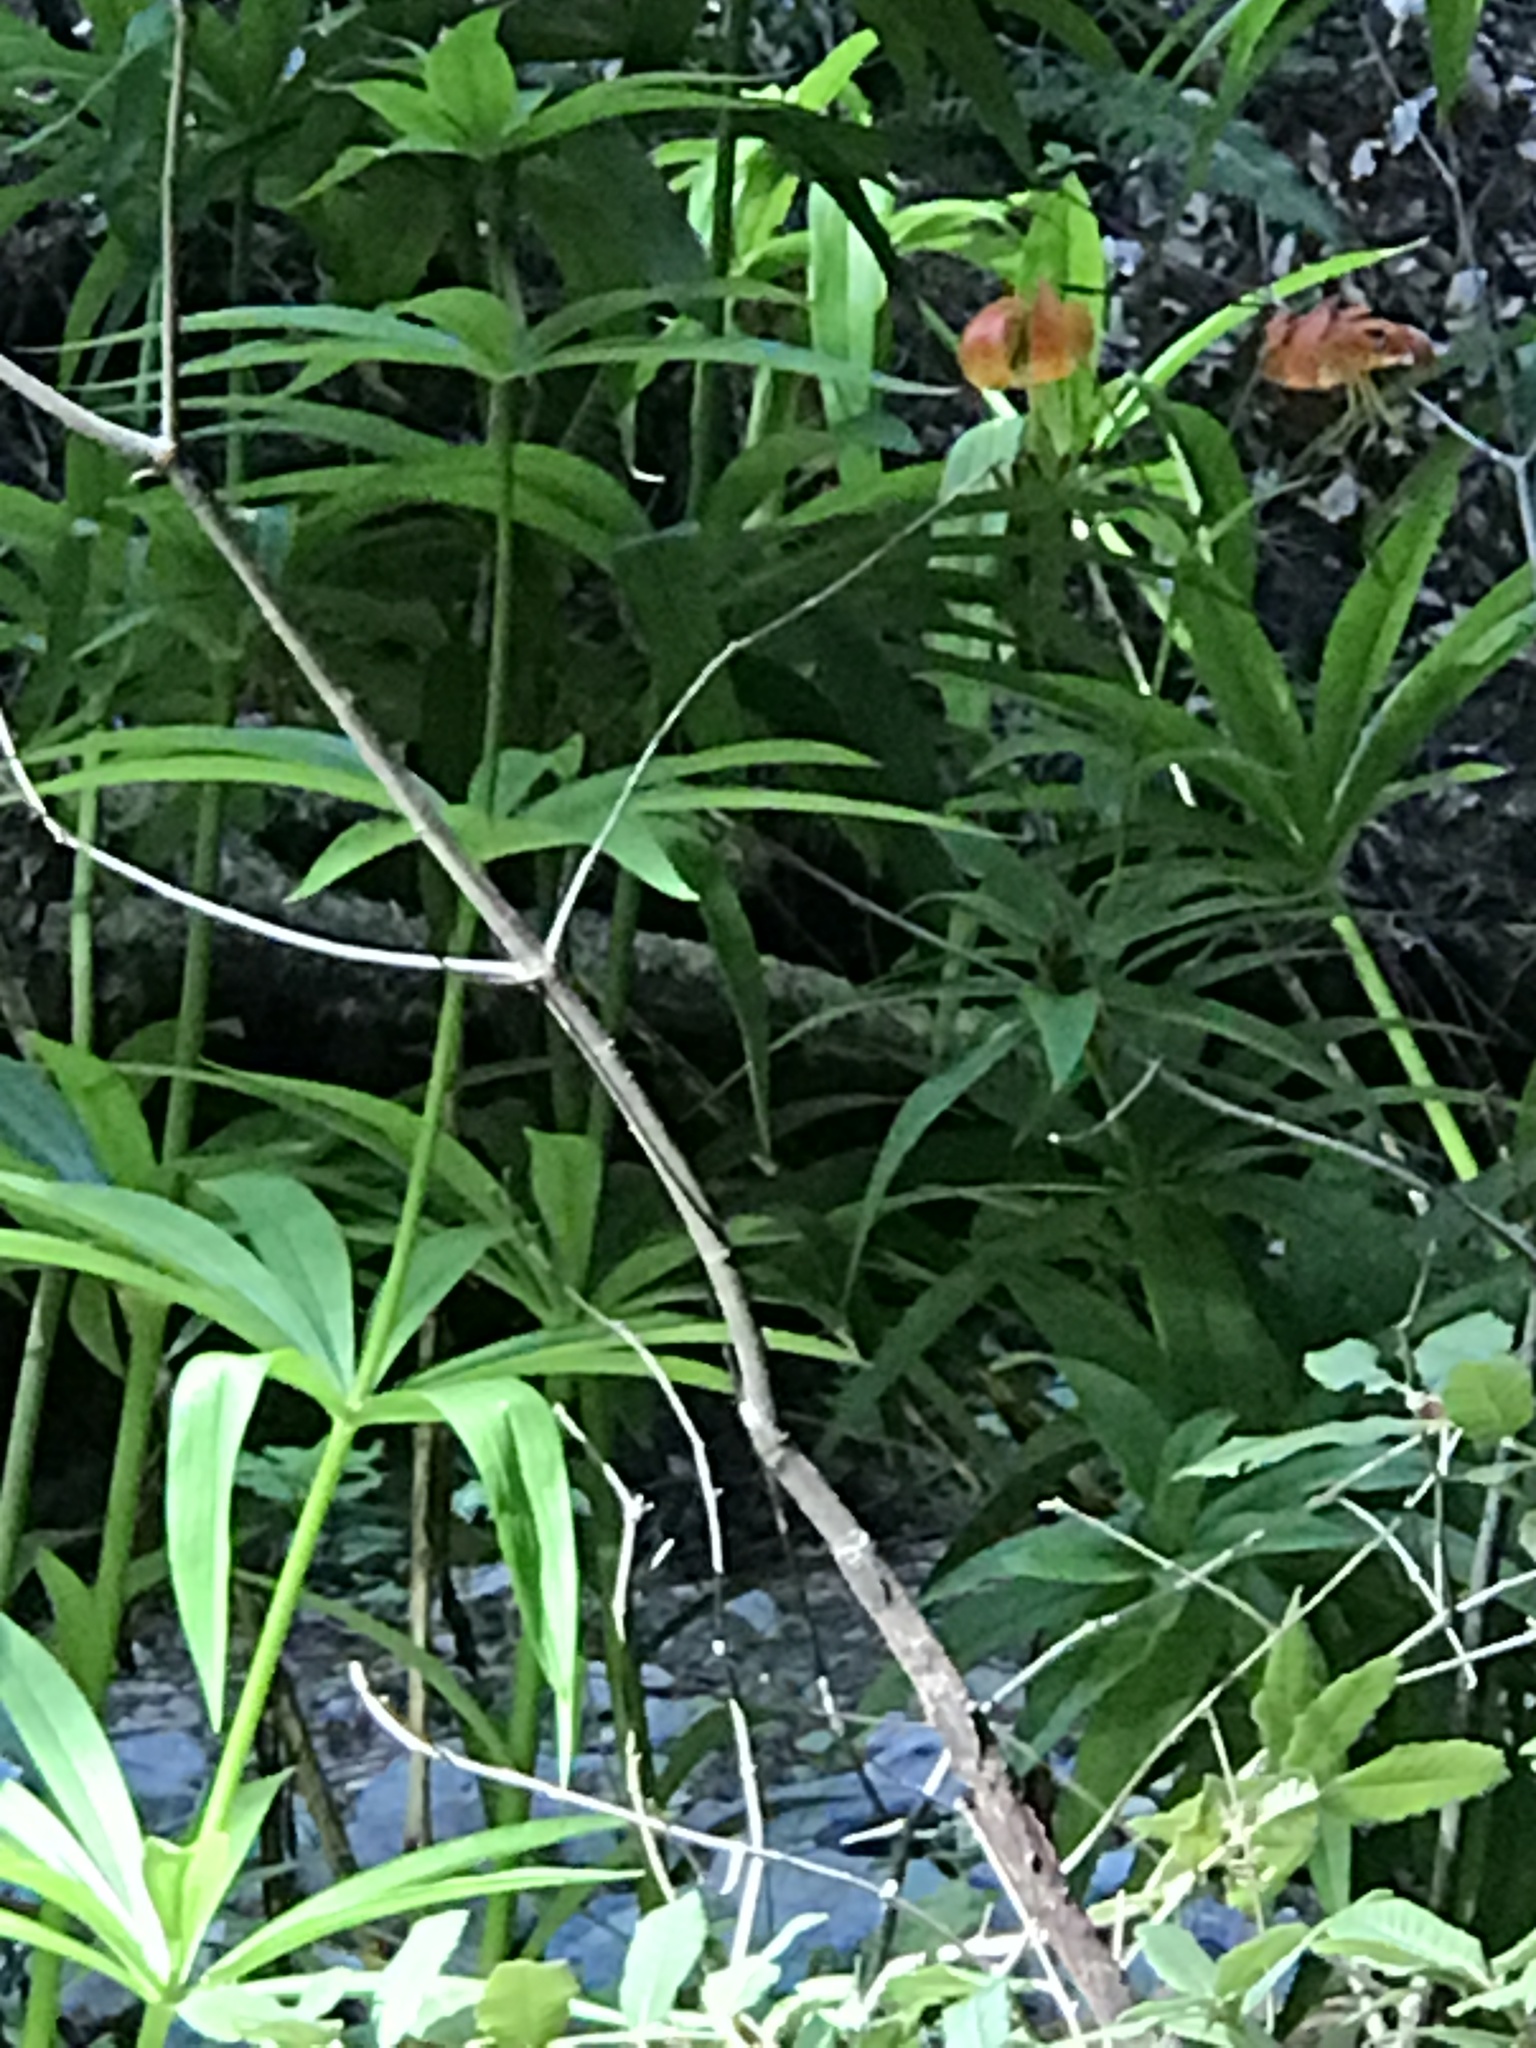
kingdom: Plantae
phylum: Tracheophyta
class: Liliopsida
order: Liliales
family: Liliaceae
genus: Lilium
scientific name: Lilium pardalinum
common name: Panther lily
